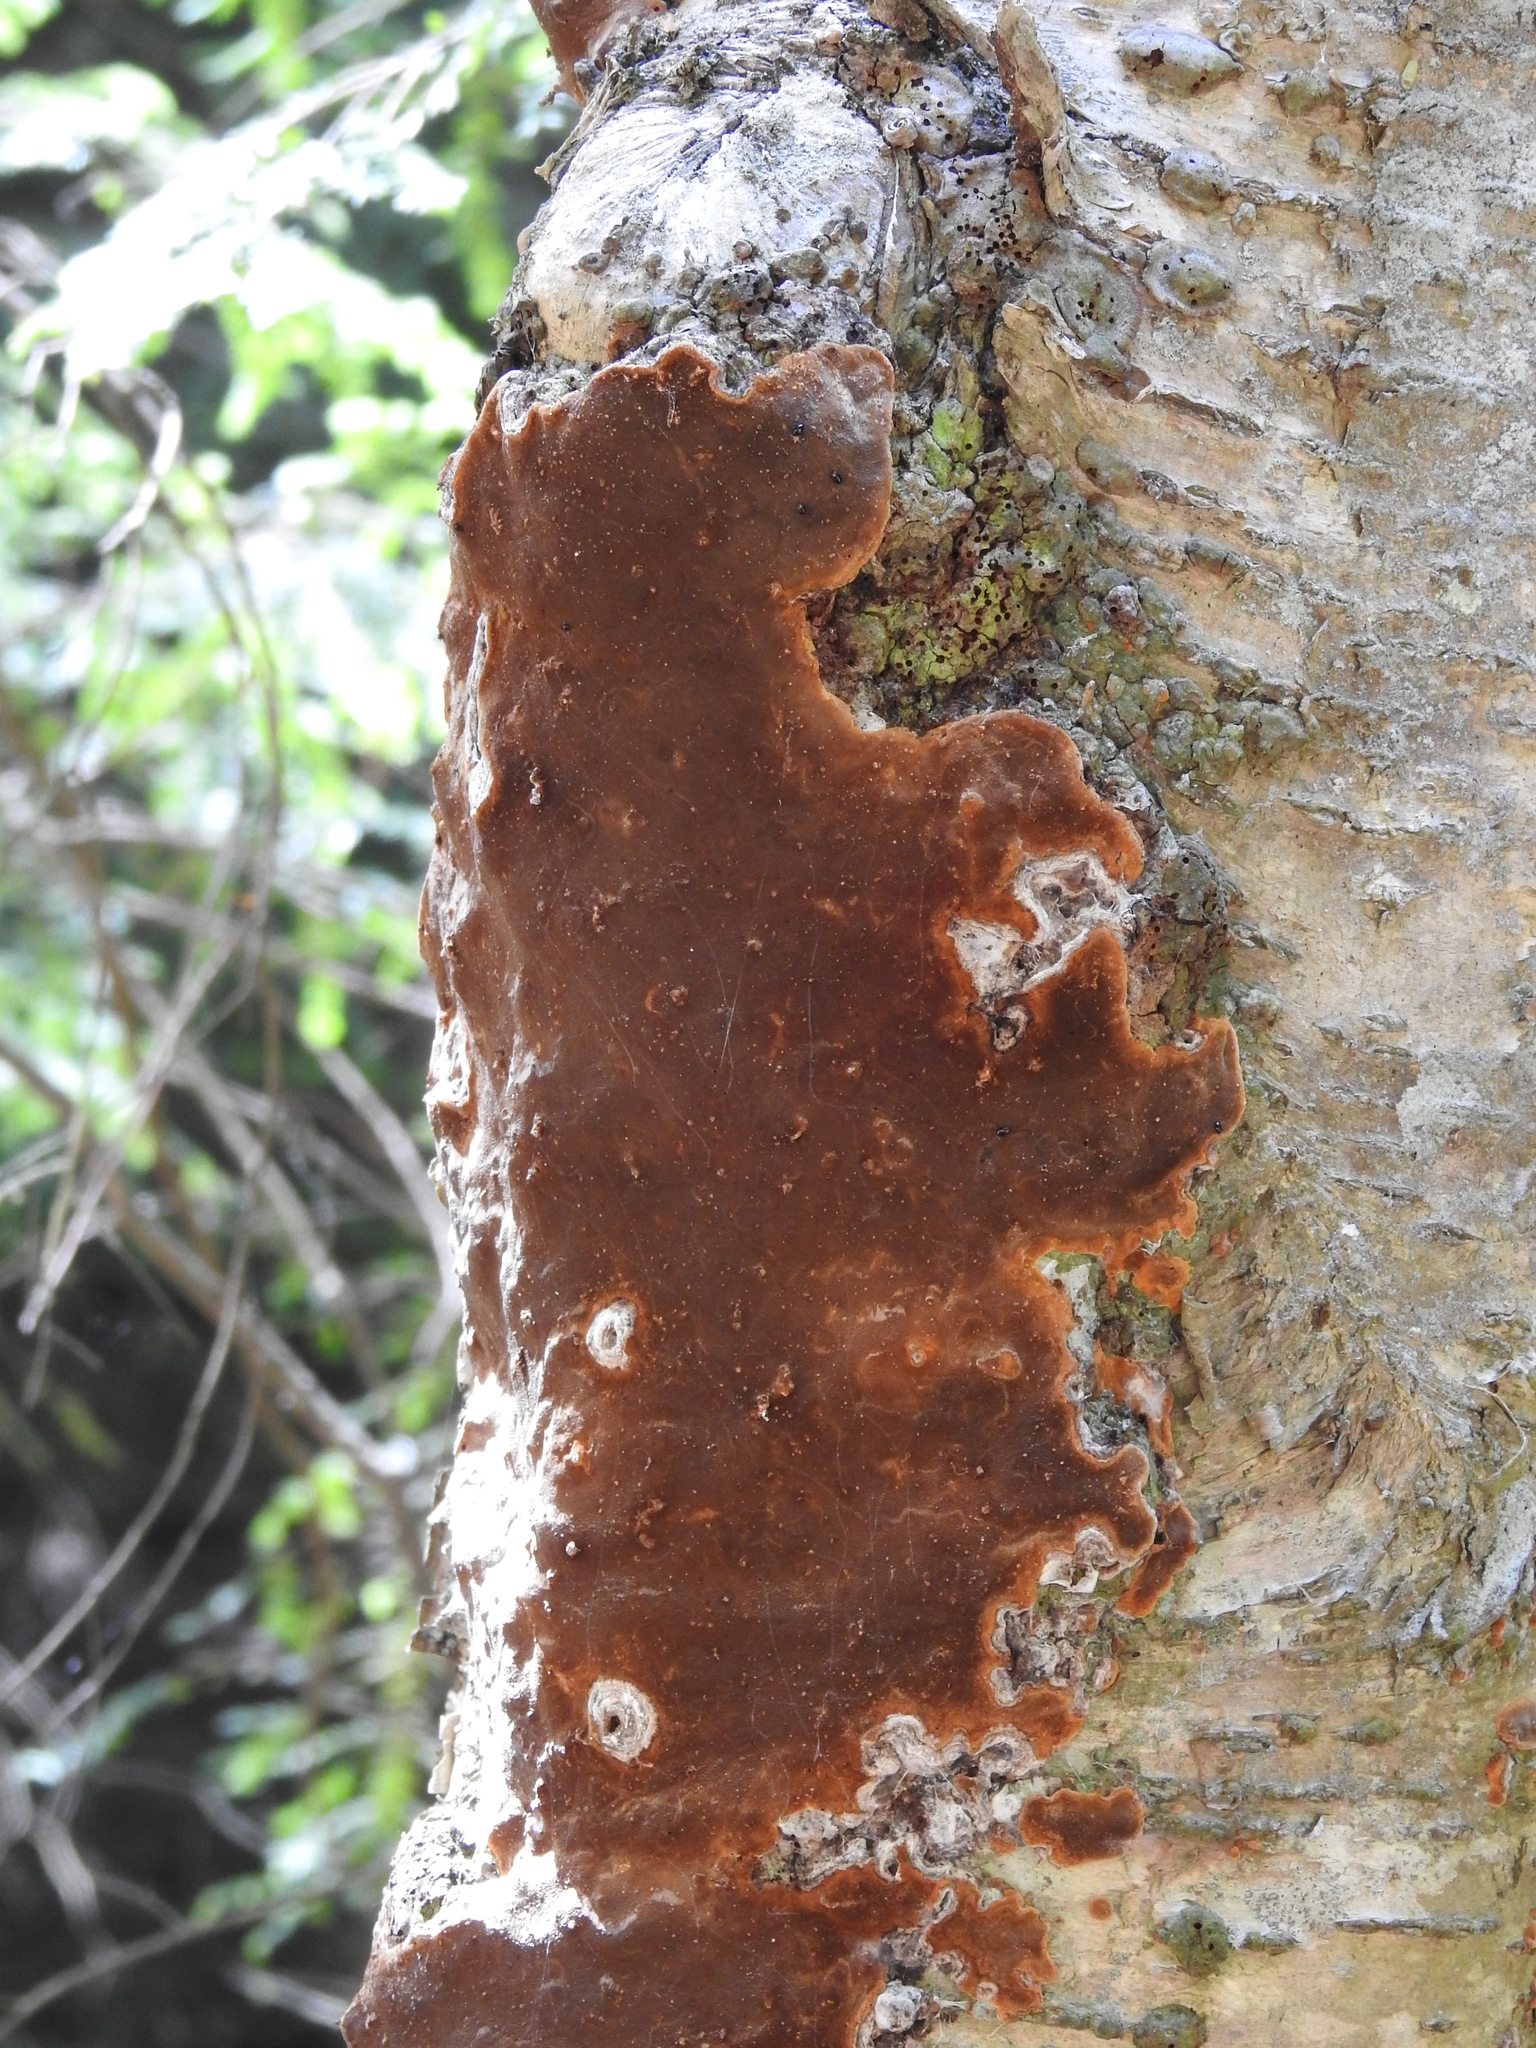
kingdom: Fungi
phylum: Basidiomycota
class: Agaricomycetes
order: Hymenochaetales
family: Hymenochaetaceae
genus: Fomitiporia
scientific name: Fomitiporia punctata
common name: Elbowpatch crust
